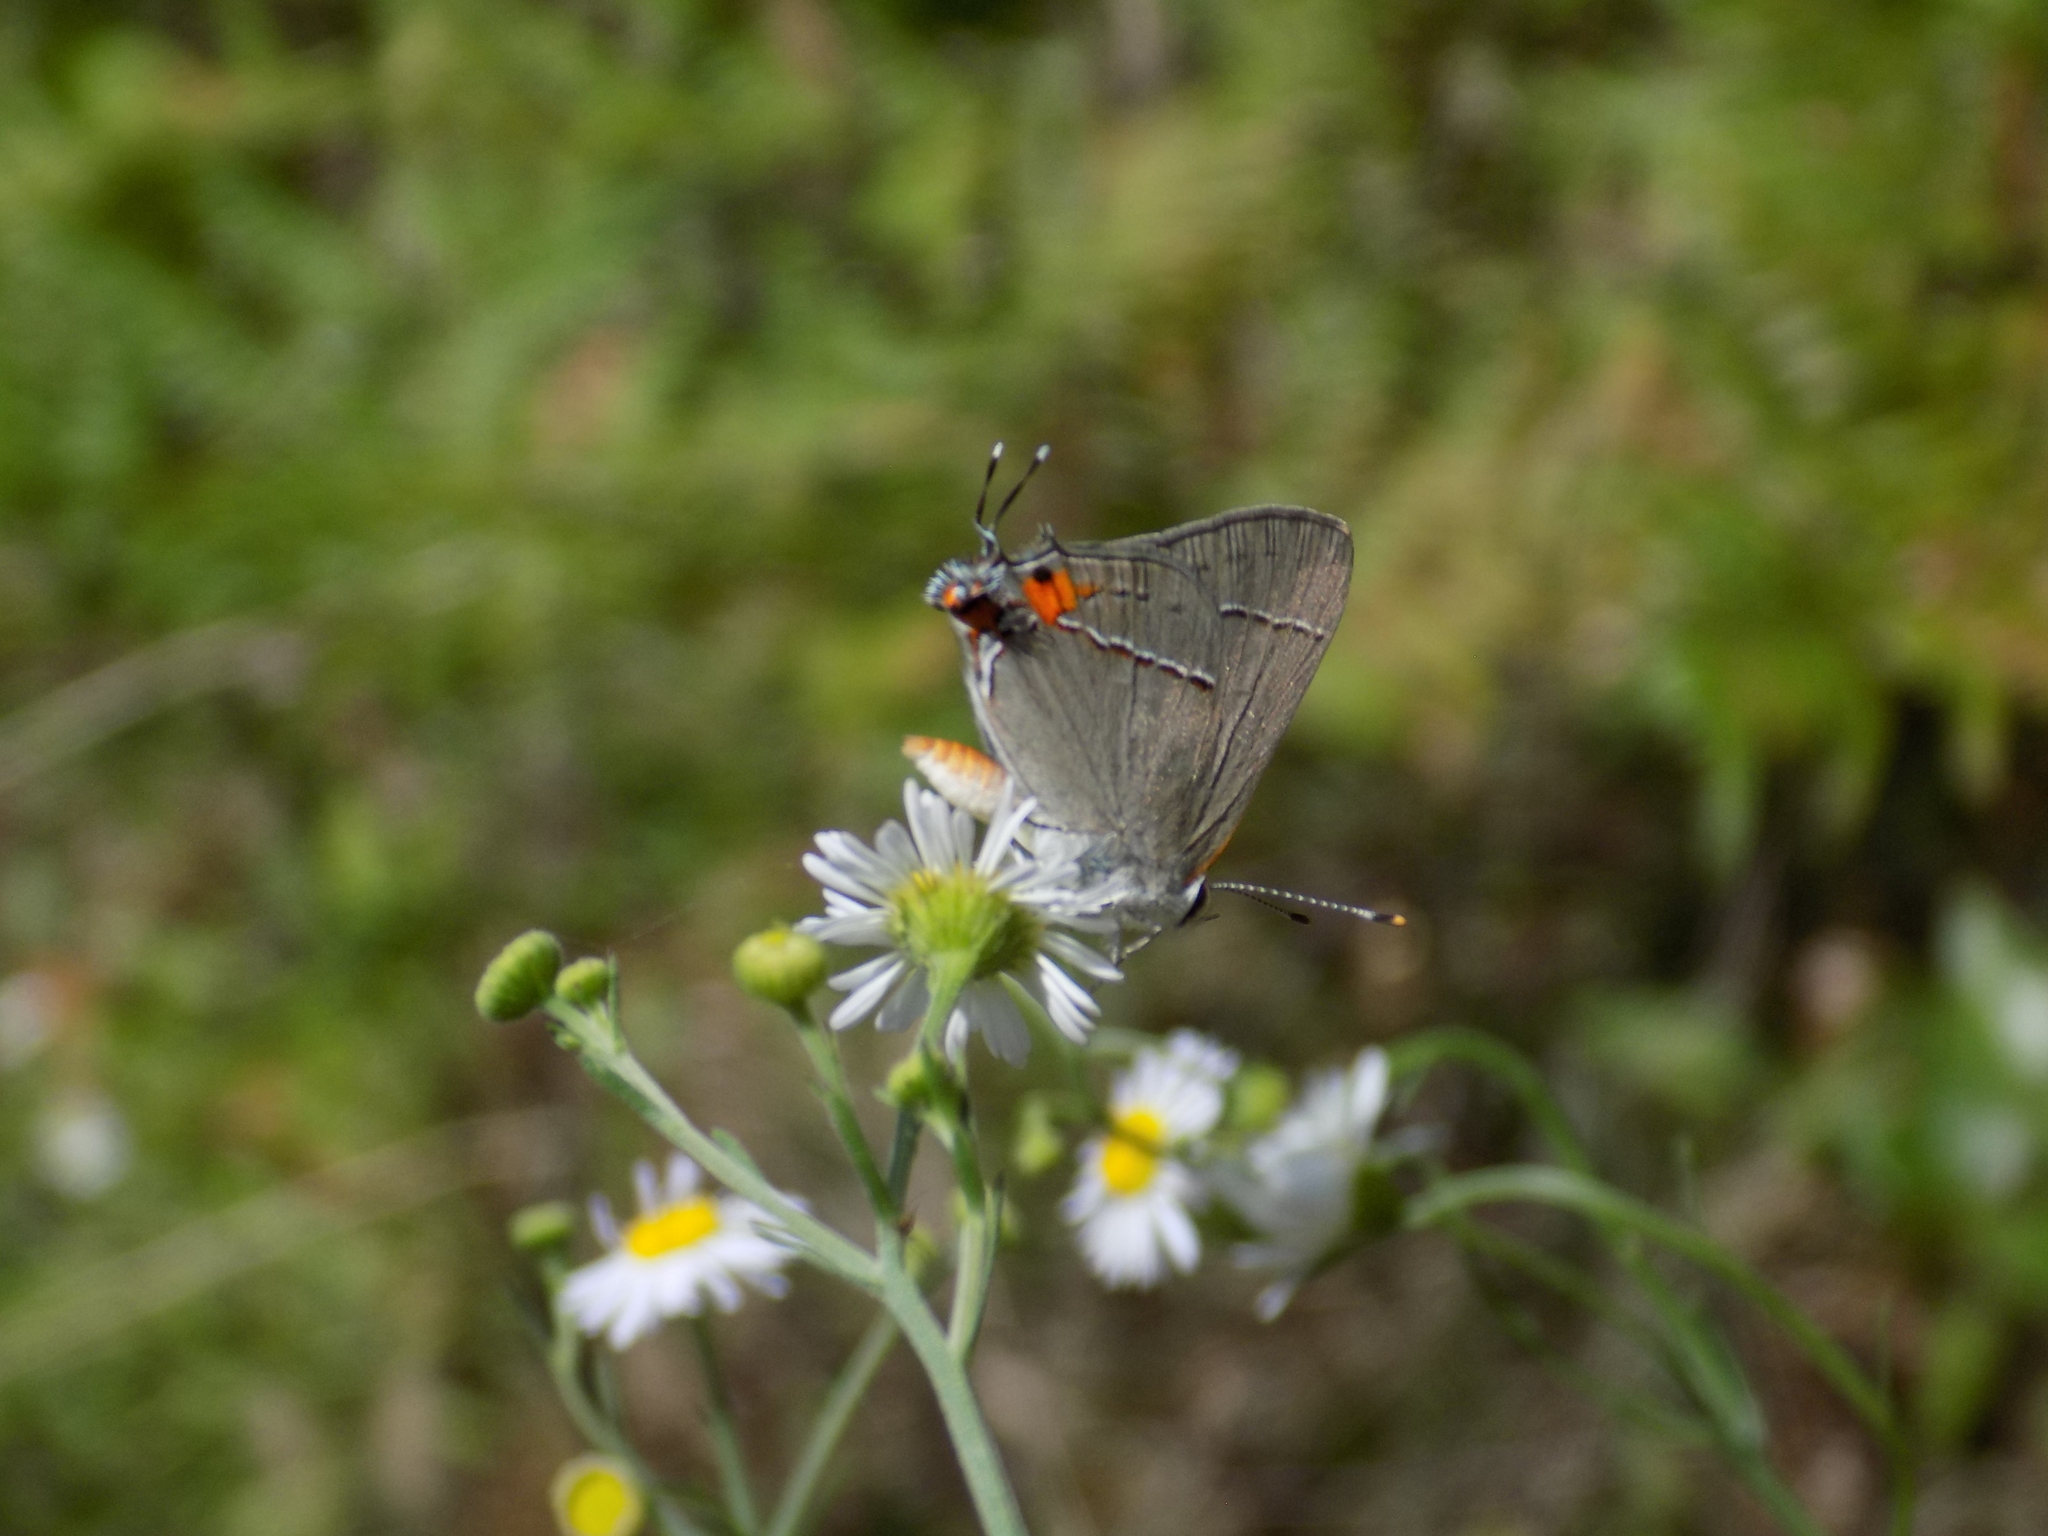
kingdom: Animalia
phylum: Arthropoda
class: Insecta
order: Lepidoptera
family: Lycaenidae
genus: Strymon
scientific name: Strymon melinus
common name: Gray hairstreak
